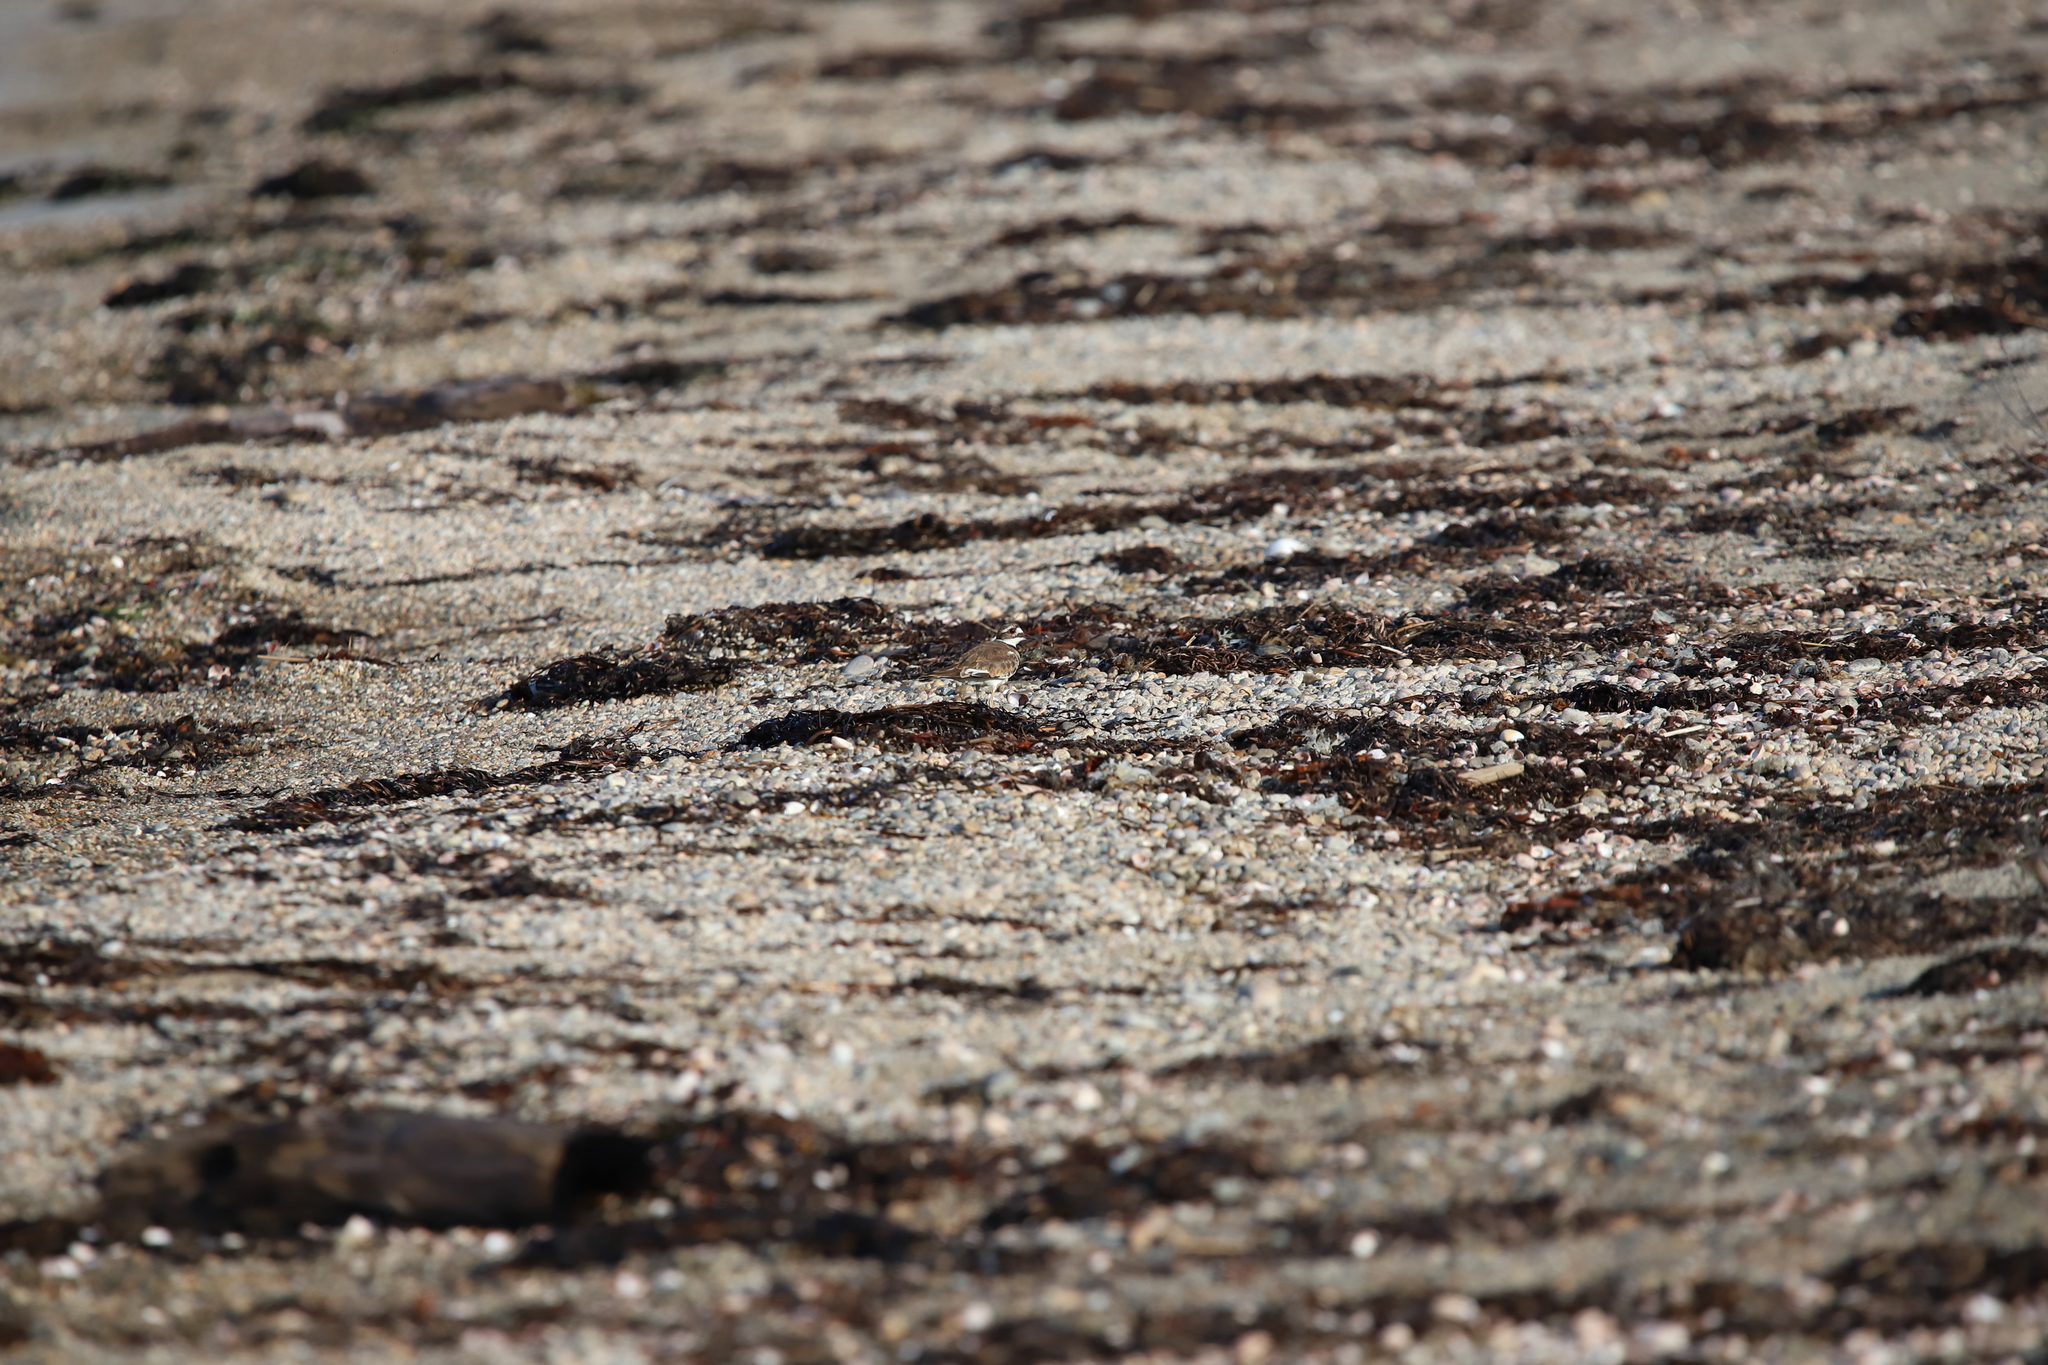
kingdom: Animalia
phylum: Chordata
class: Aves
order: Charadriiformes
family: Charadriidae
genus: Charadrius
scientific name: Charadrius vociferus
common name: Killdeer
